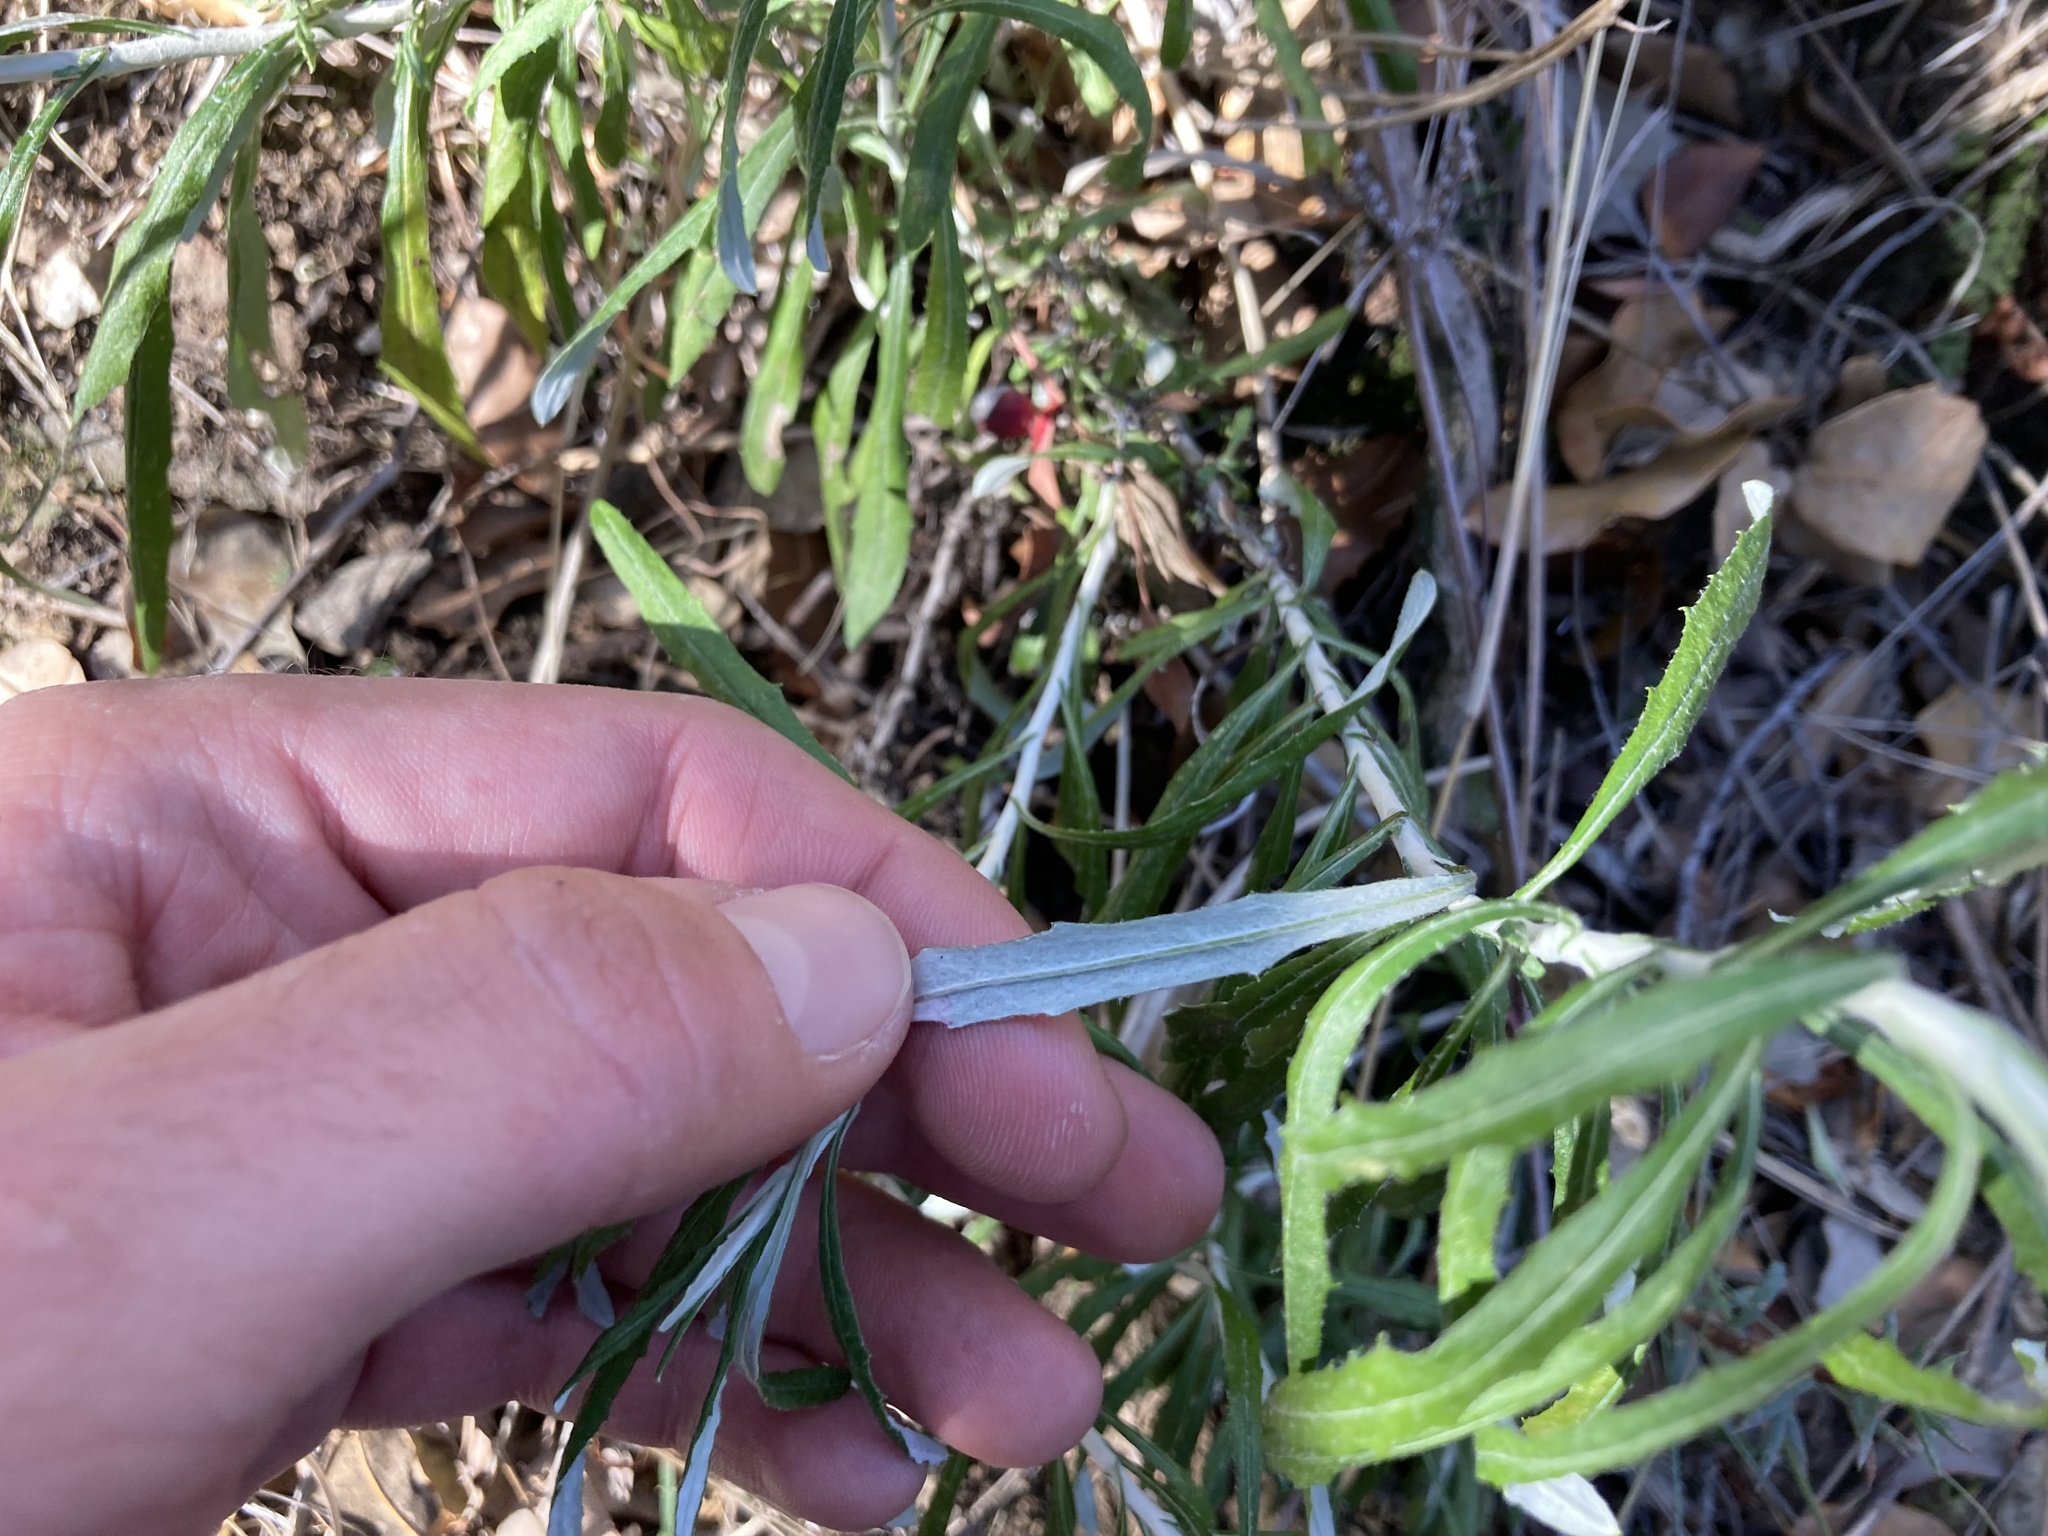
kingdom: Plantae
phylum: Tracheophyta
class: Magnoliopsida
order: Asterales
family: Asteraceae
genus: Senecio
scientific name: Senecio pterophorus
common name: Shoddy ragwort
